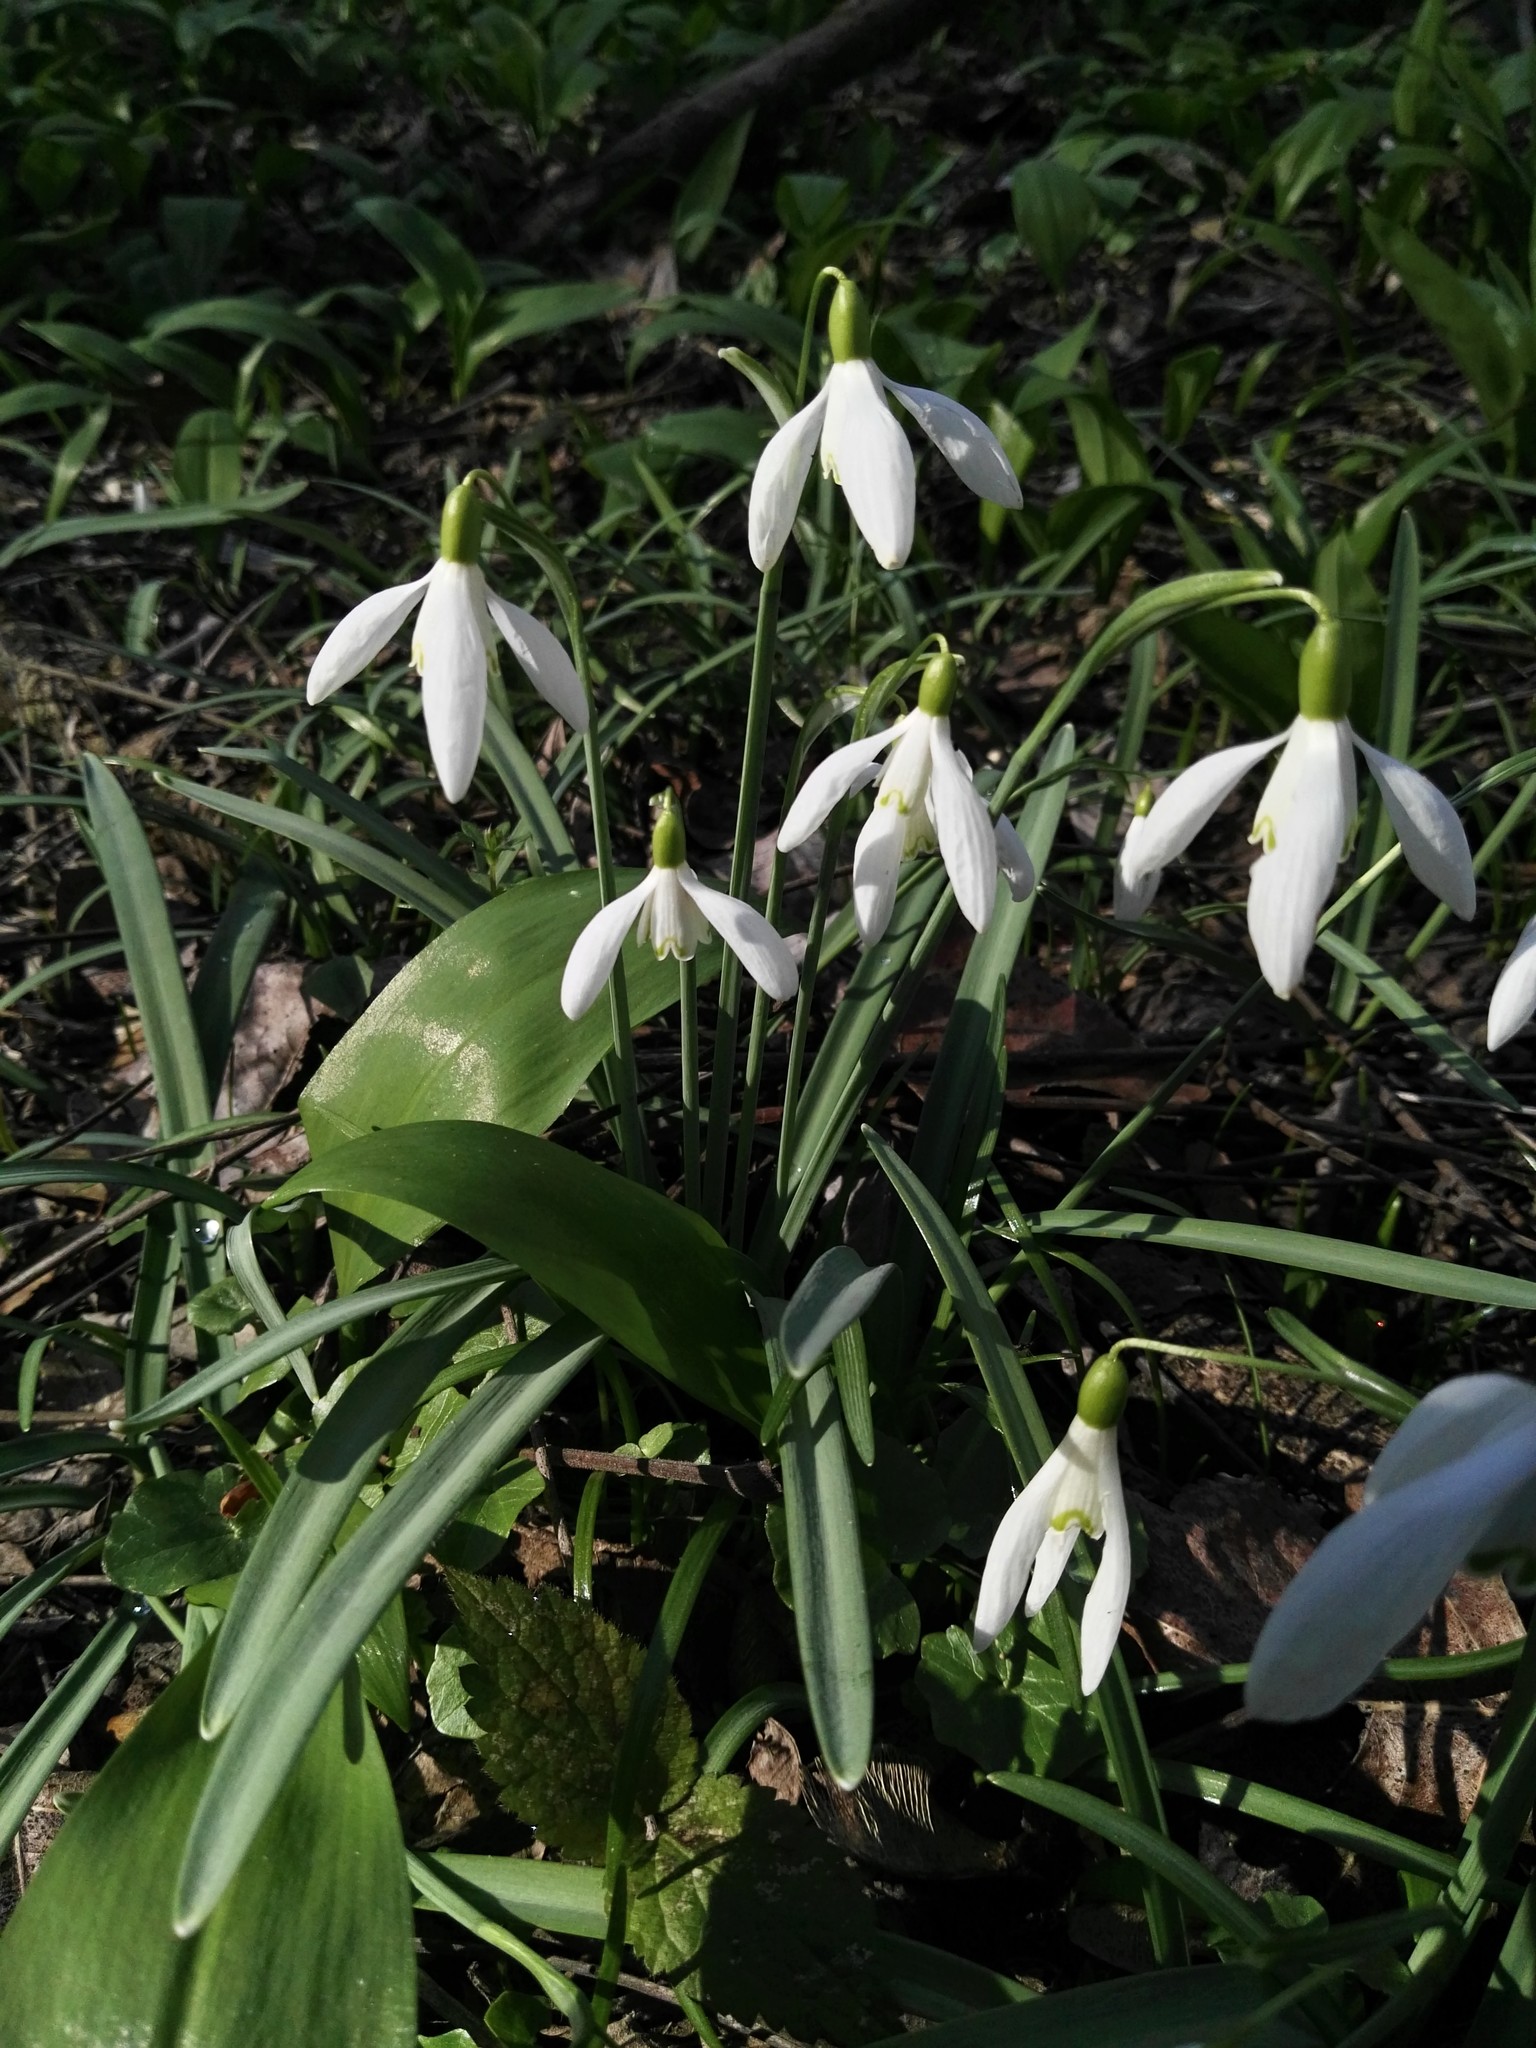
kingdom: Plantae
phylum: Tracheophyta
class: Liliopsida
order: Asparagales
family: Amaryllidaceae
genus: Galanthus
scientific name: Galanthus nivalis
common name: Snowdrop
